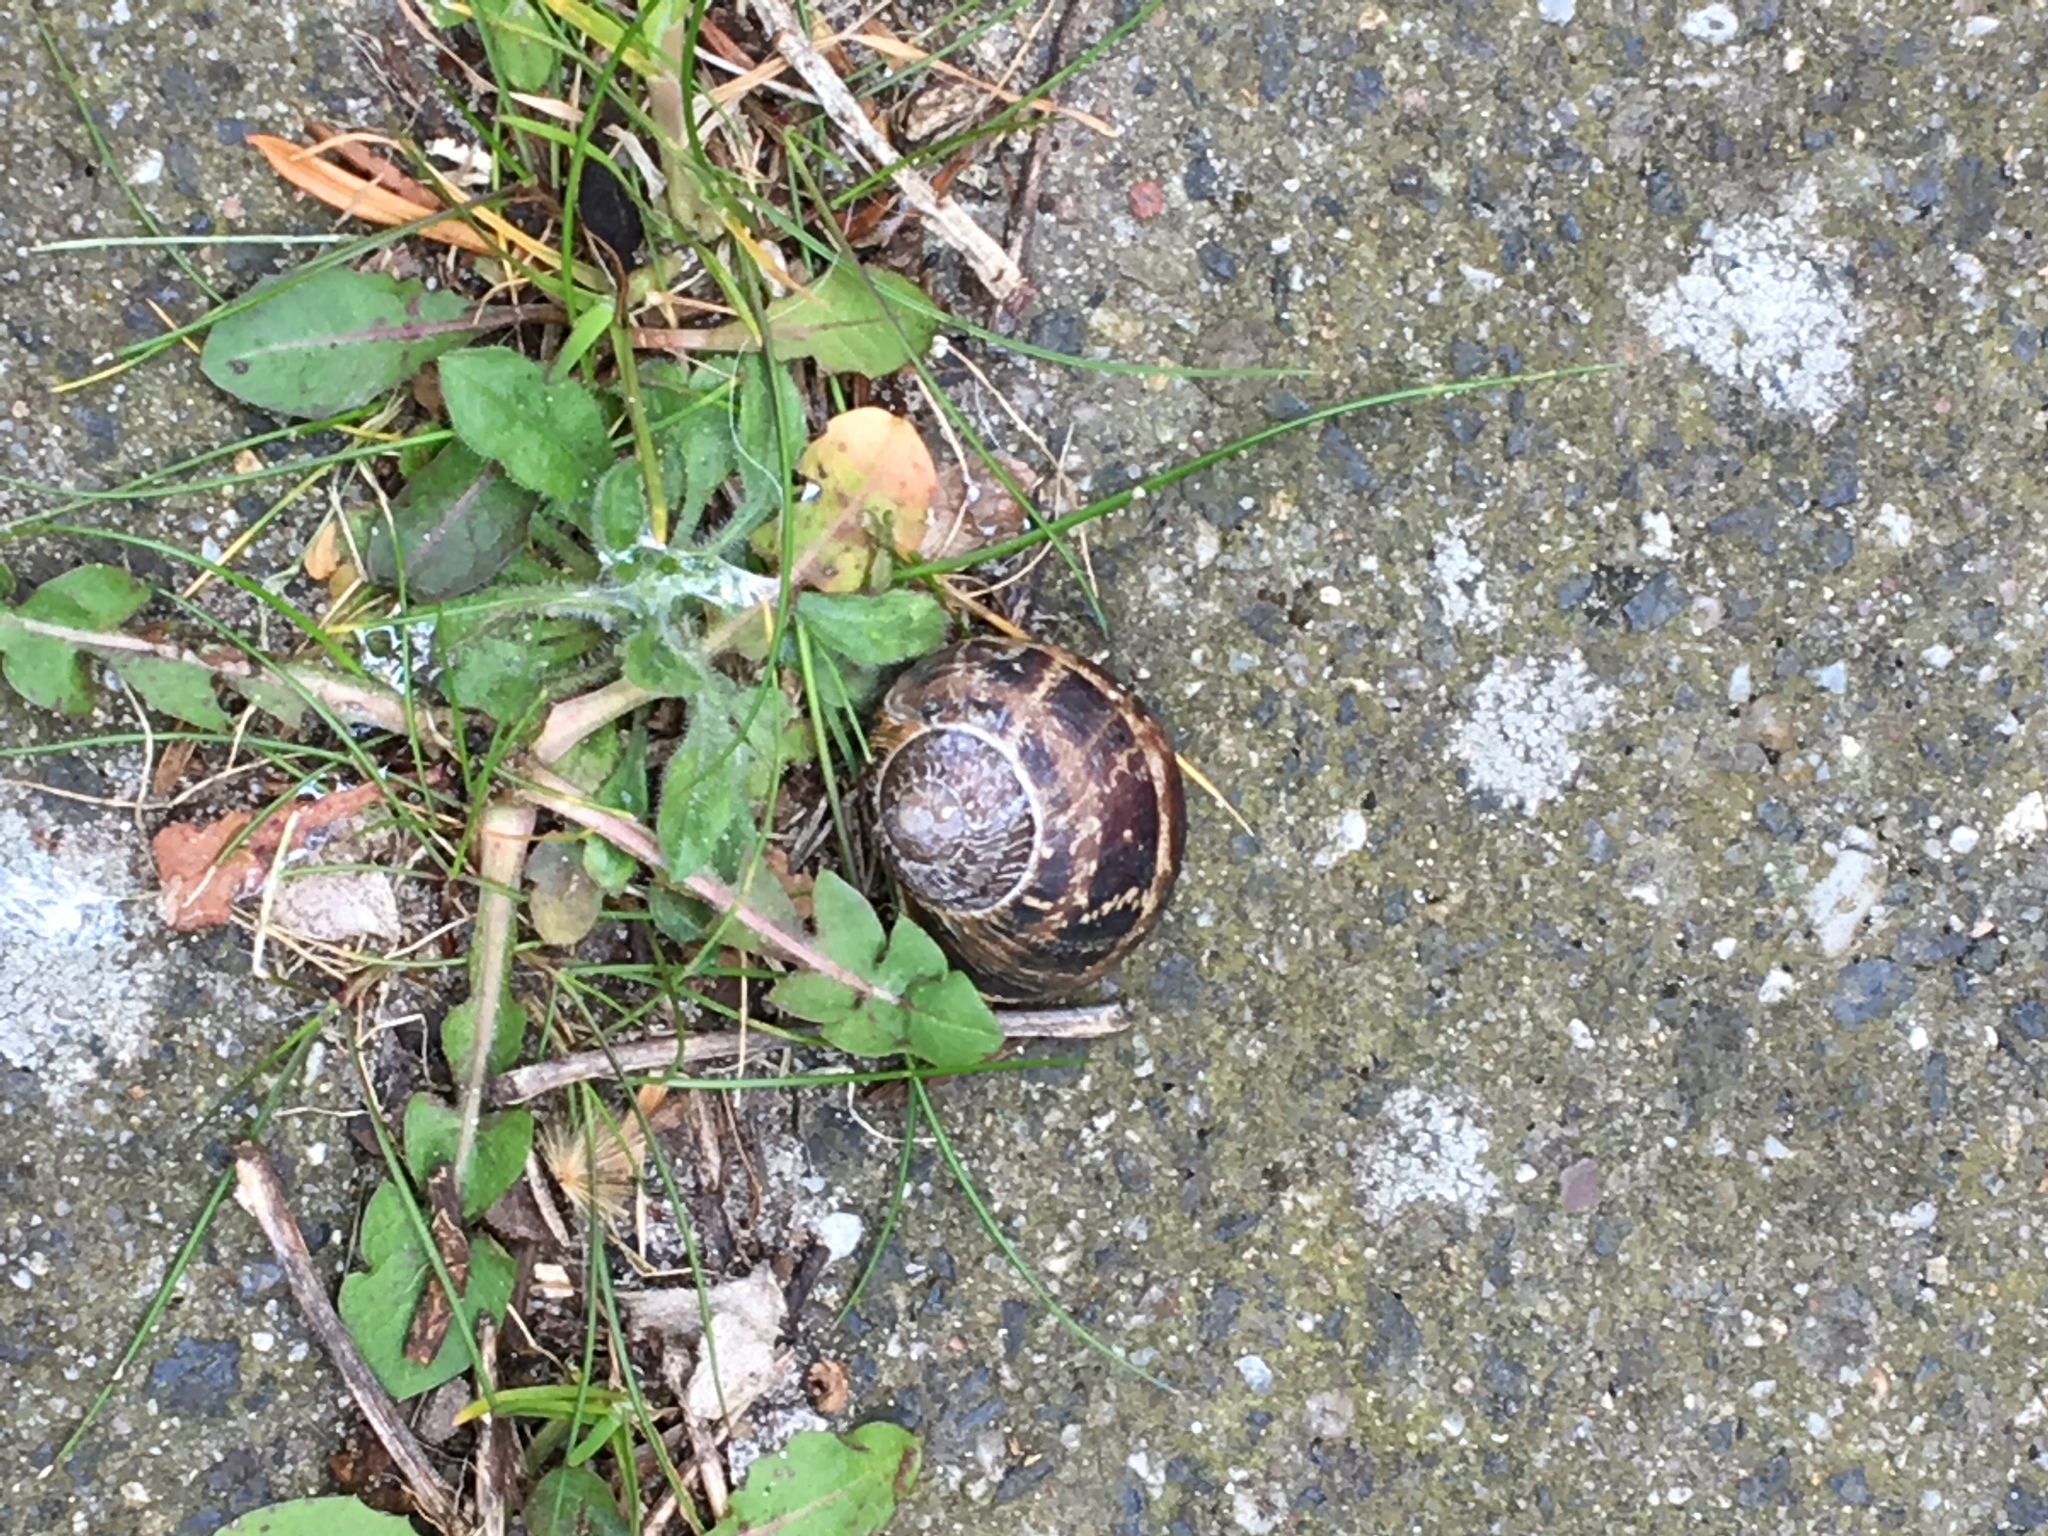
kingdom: Animalia
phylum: Mollusca
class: Gastropoda
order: Stylommatophora
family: Helicidae
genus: Cornu
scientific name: Cornu aspersum
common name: Brown garden snail
